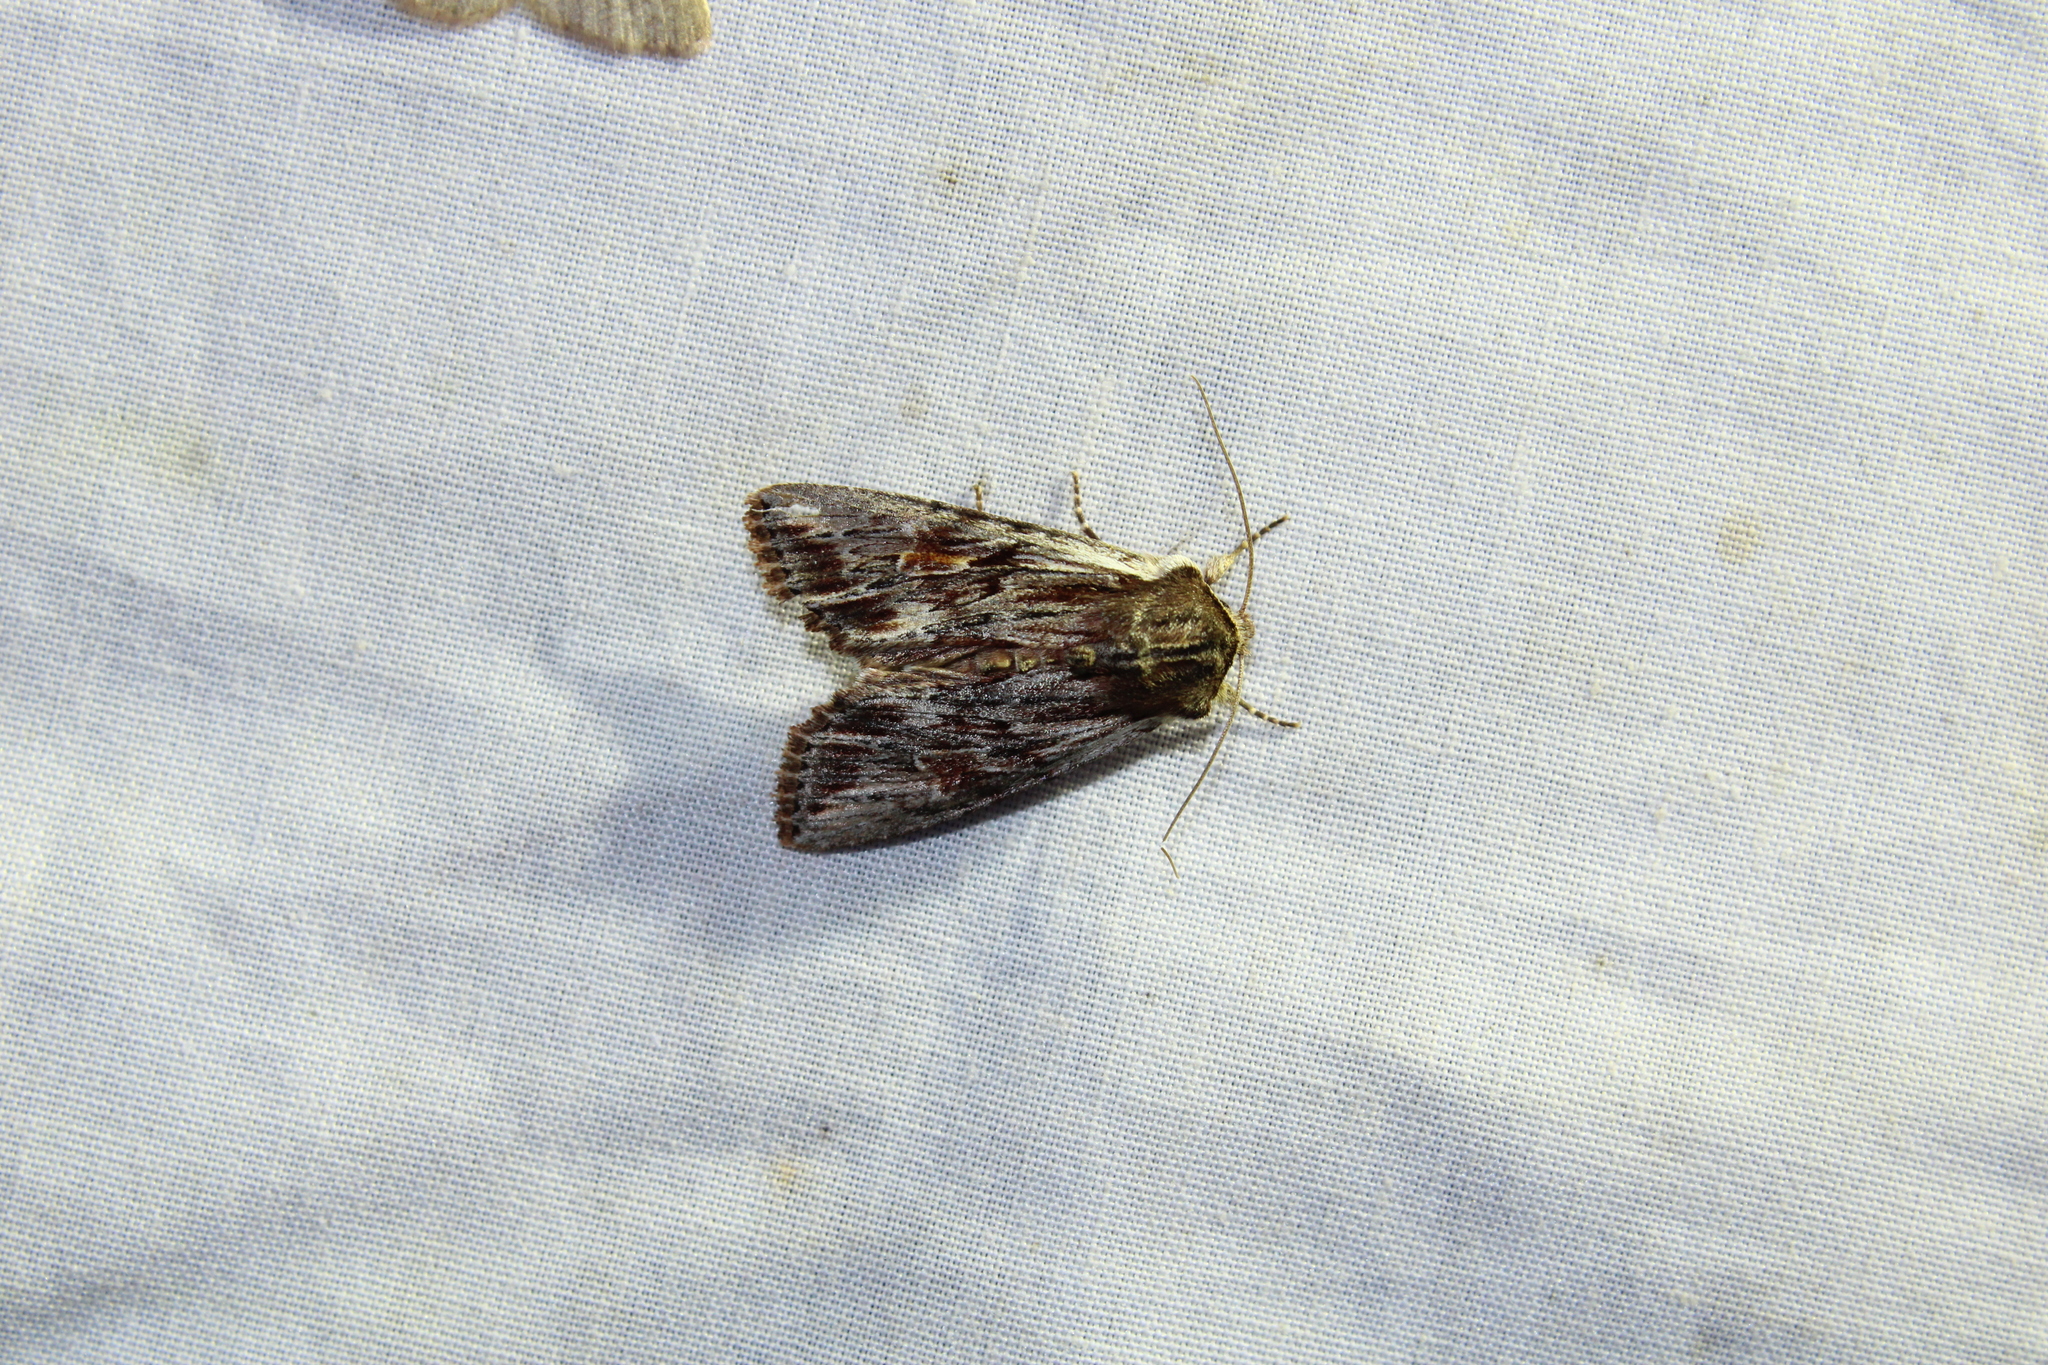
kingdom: Animalia
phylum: Arthropoda
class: Insecta
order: Lepidoptera
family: Noctuidae
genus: Achatia
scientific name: Achatia confusa
